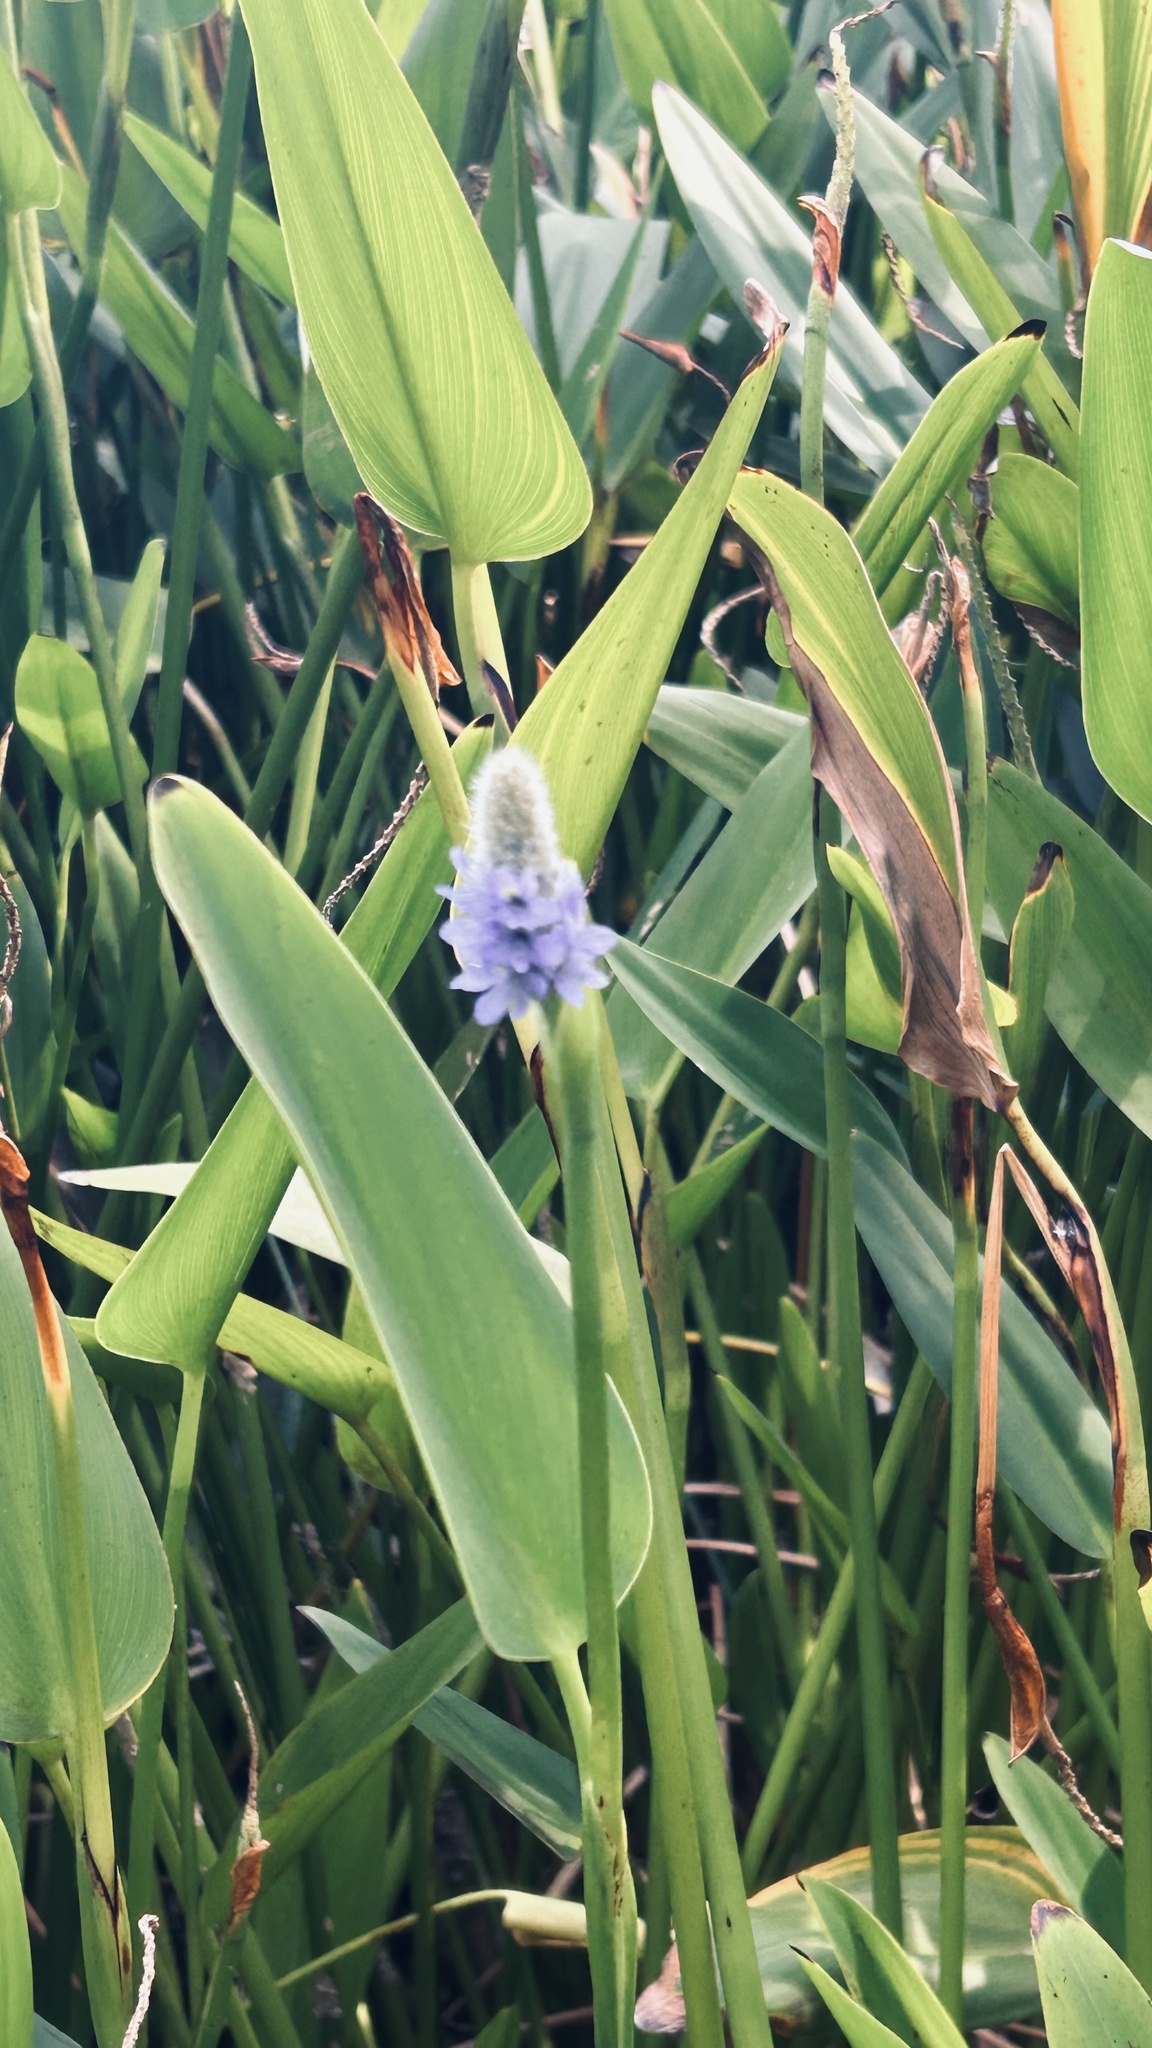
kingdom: Plantae
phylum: Tracheophyta
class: Liliopsida
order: Commelinales
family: Pontederiaceae
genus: Pontederia
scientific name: Pontederia cordata
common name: Pickerelweed
